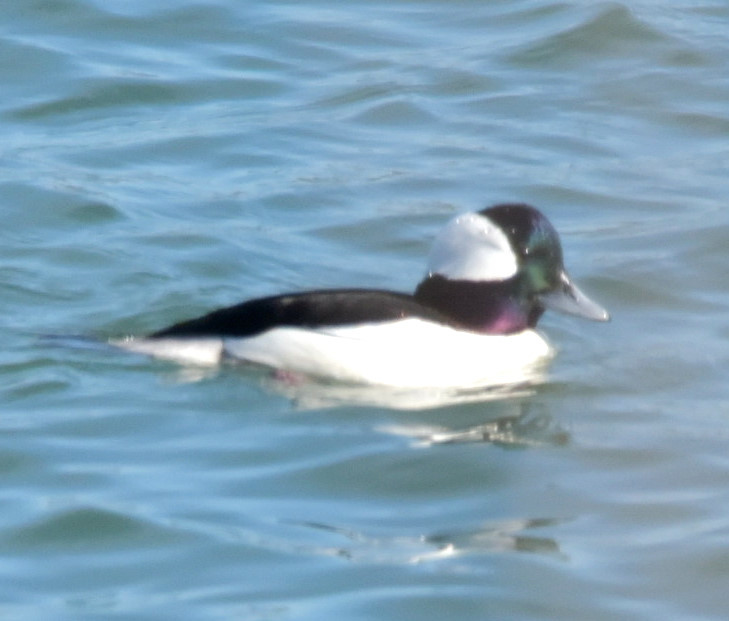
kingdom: Animalia
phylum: Chordata
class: Aves
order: Anseriformes
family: Anatidae
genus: Bucephala
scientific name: Bucephala albeola
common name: Bufflehead
